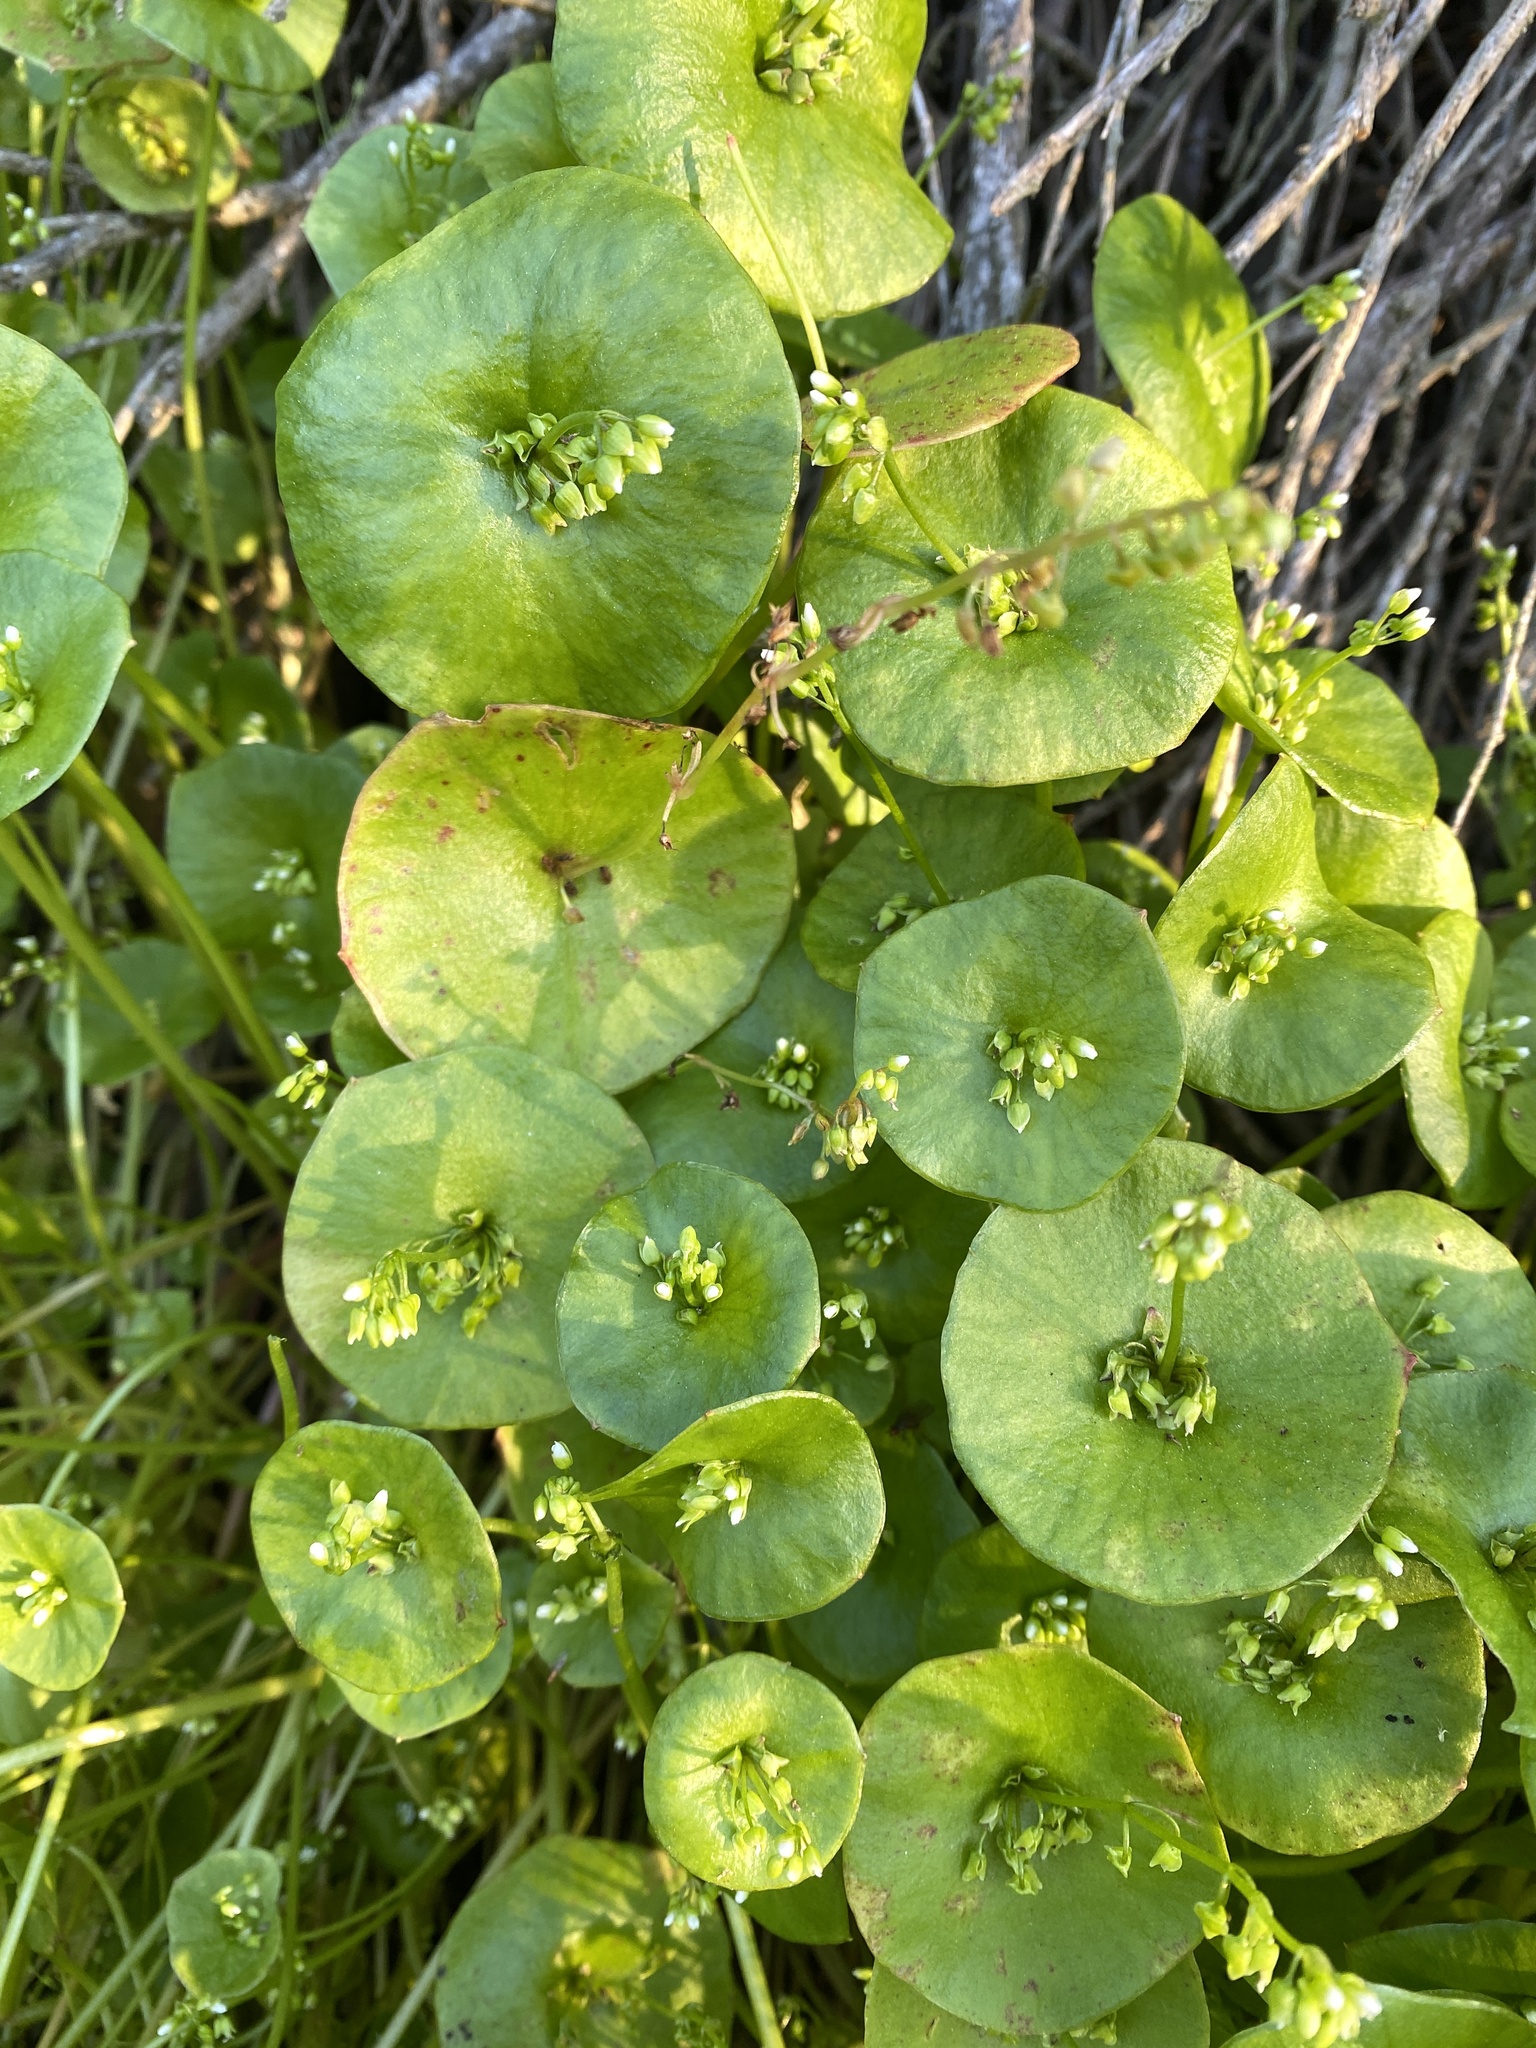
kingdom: Plantae
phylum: Tracheophyta
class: Magnoliopsida
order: Caryophyllales
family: Montiaceae
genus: Claytonia
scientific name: Claytonia perfoliata
